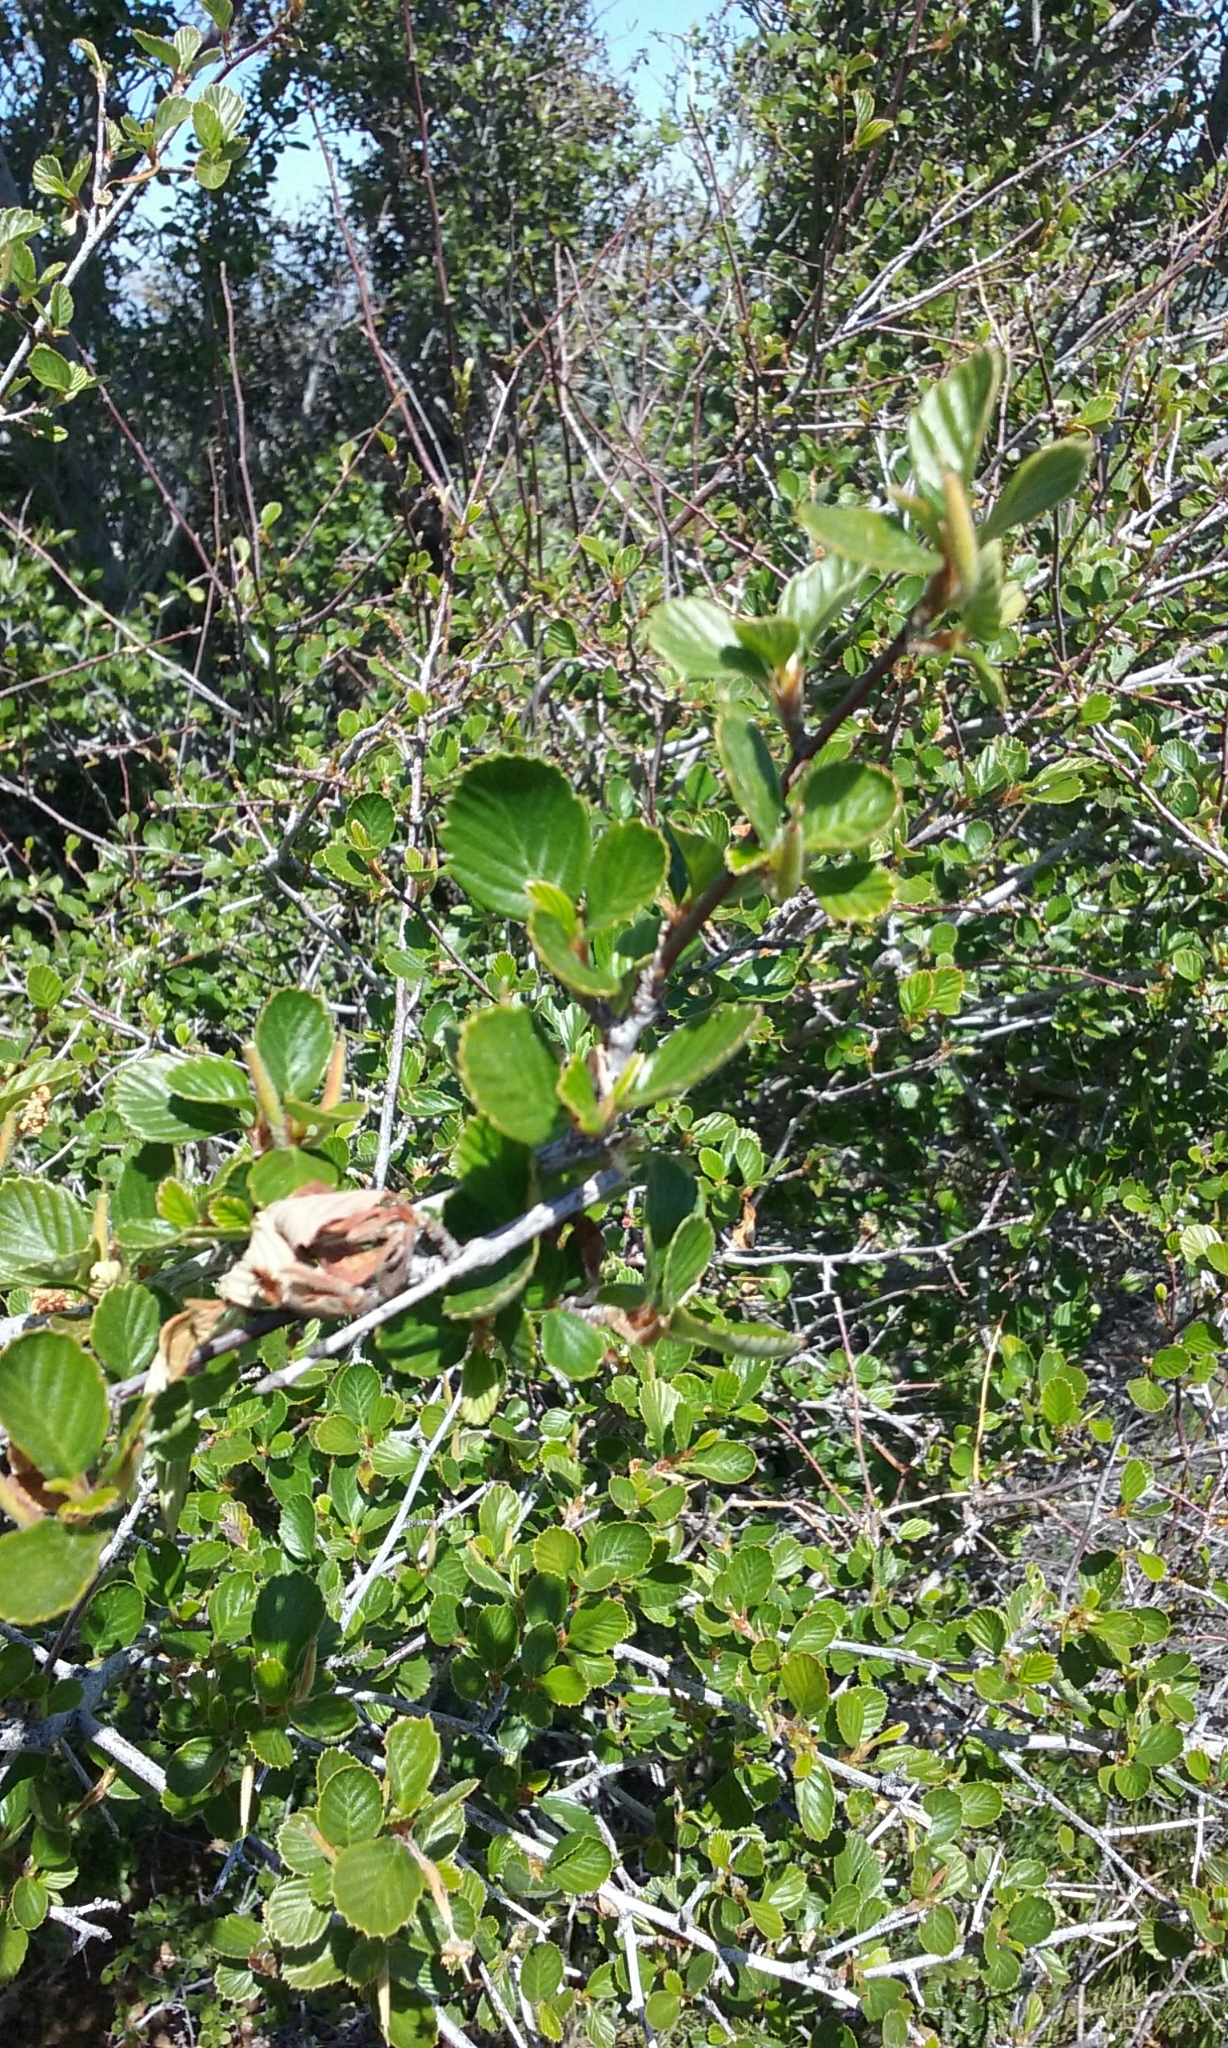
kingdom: Plantae
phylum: Tracheophyta
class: Magnoliopsida
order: Rosales
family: Rosaceae
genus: Cercocarpus
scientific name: Cercocarpus betuloides
